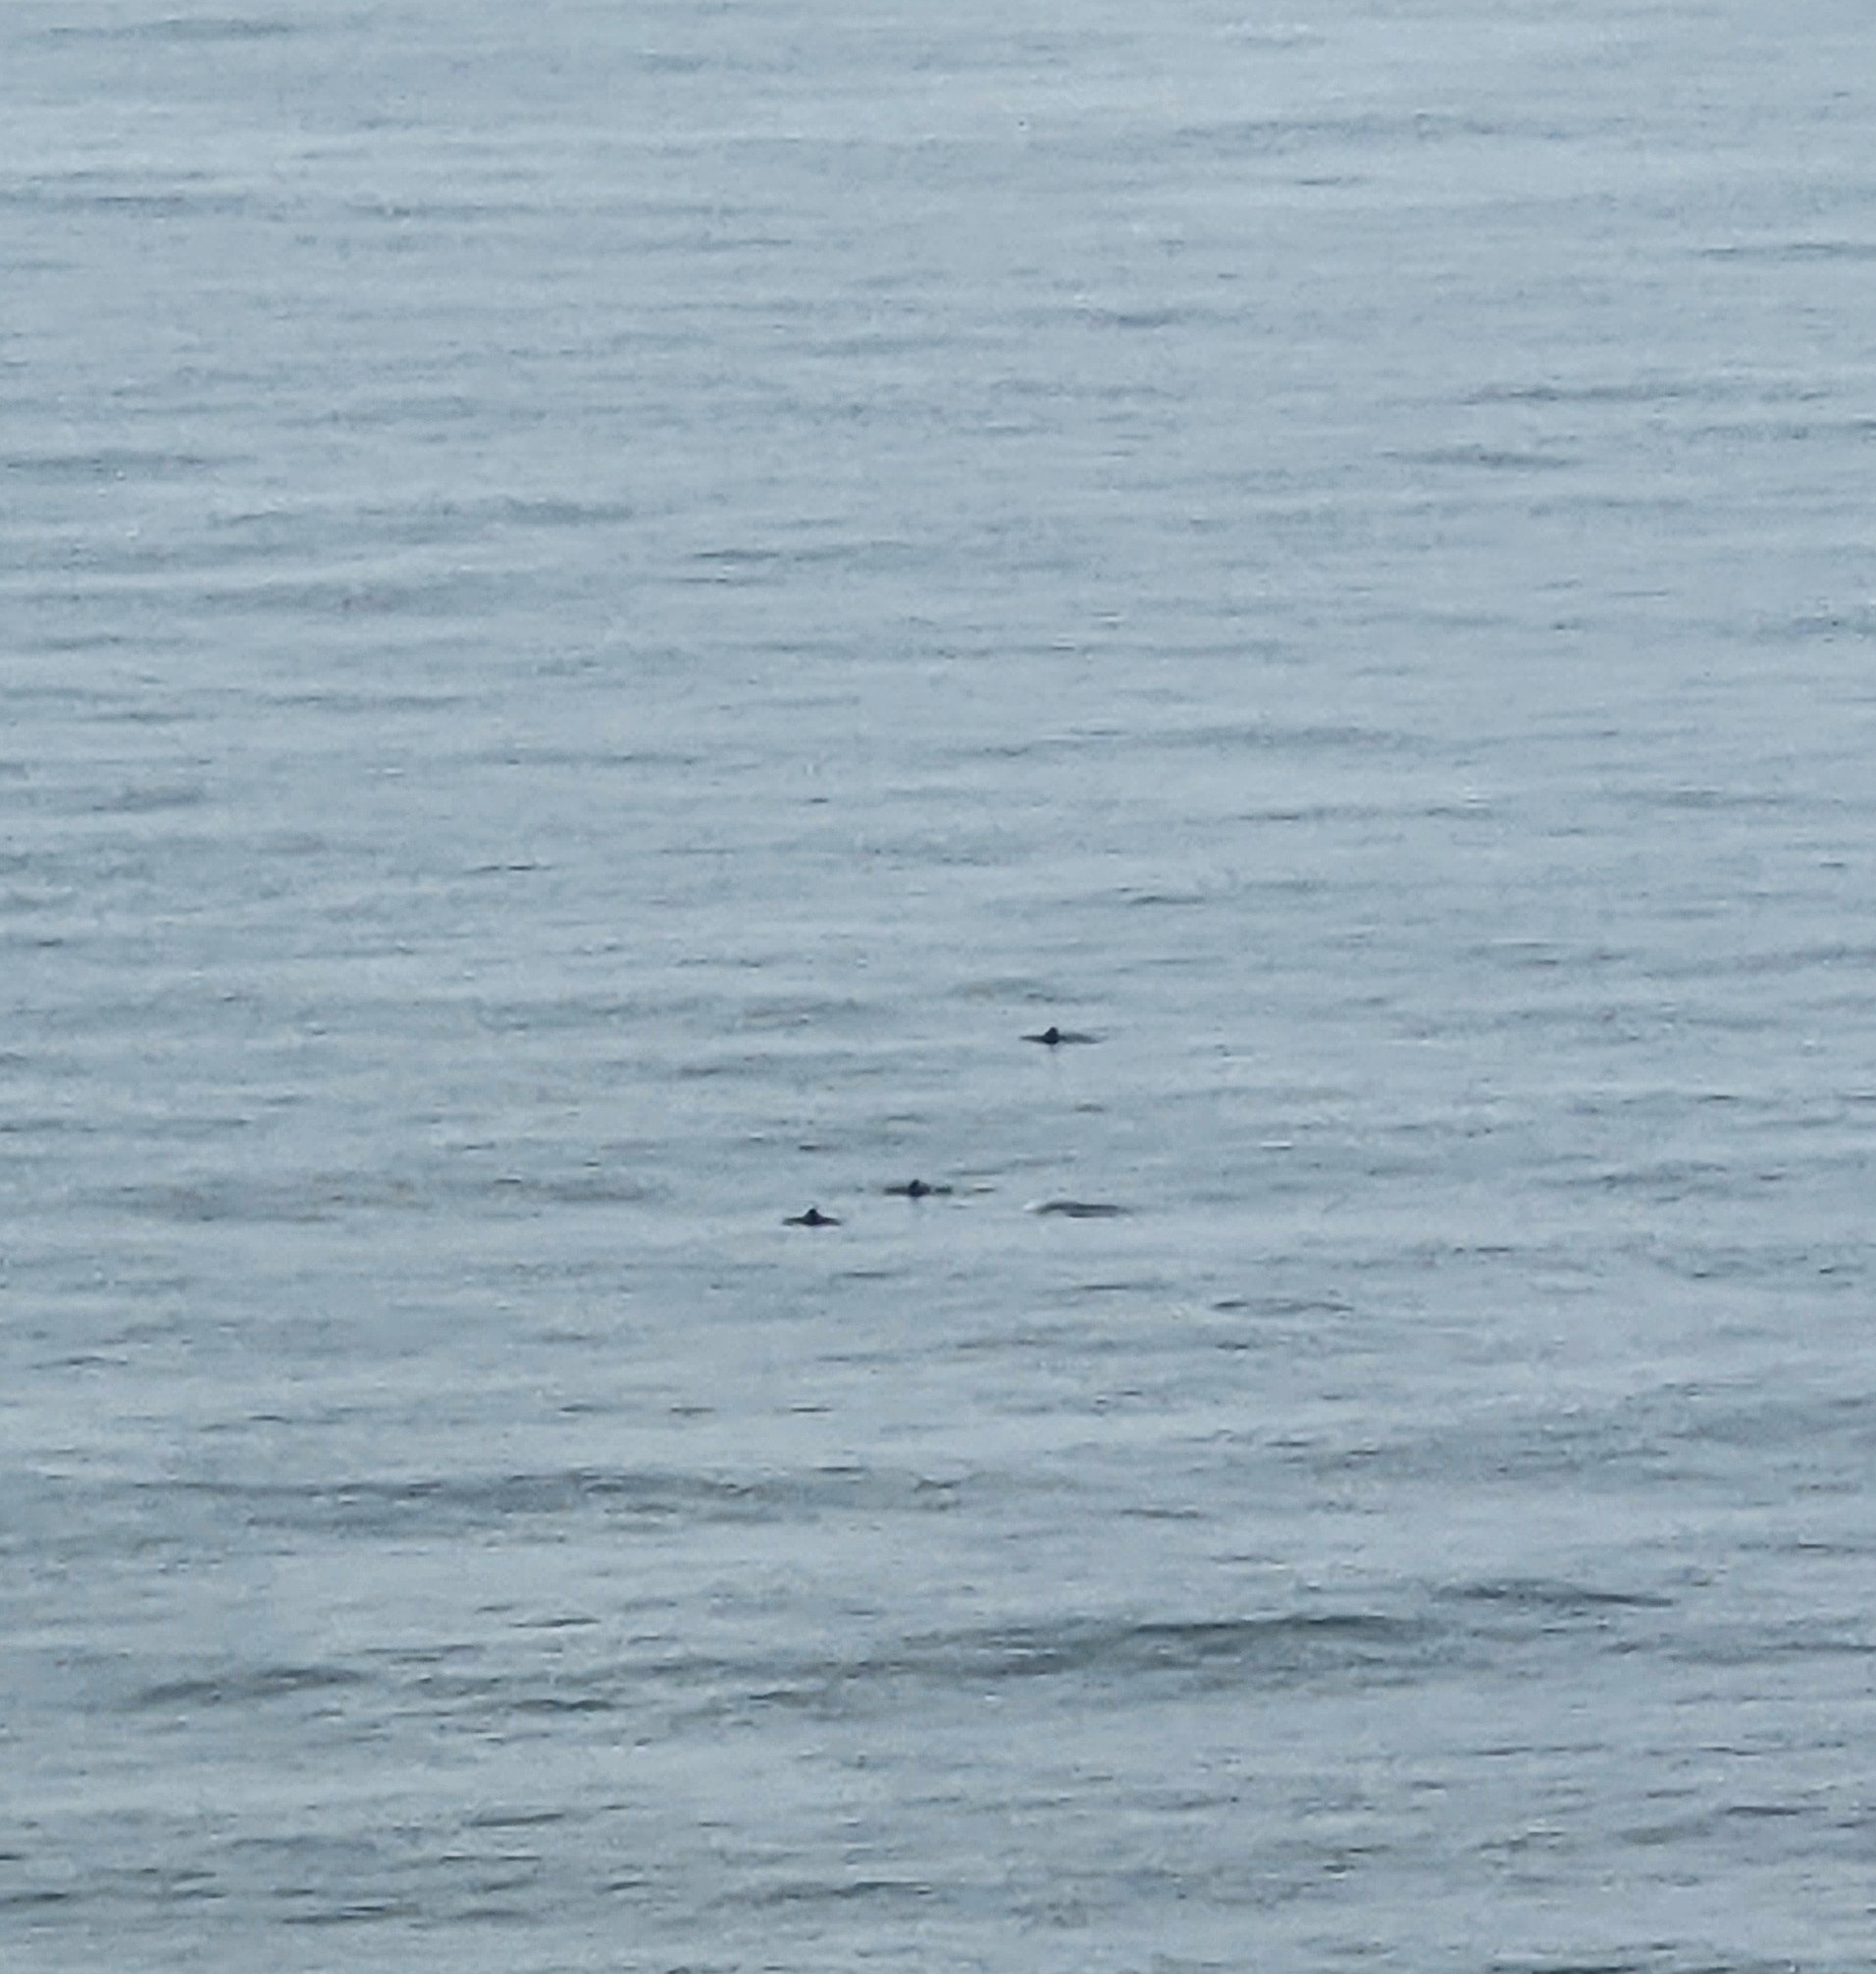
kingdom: Animalia
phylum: Chordata
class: Mammalia
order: Cetacea
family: Phocoenidae
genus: Phocoena
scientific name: Phocoena phocoena
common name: Harbor porpoise
